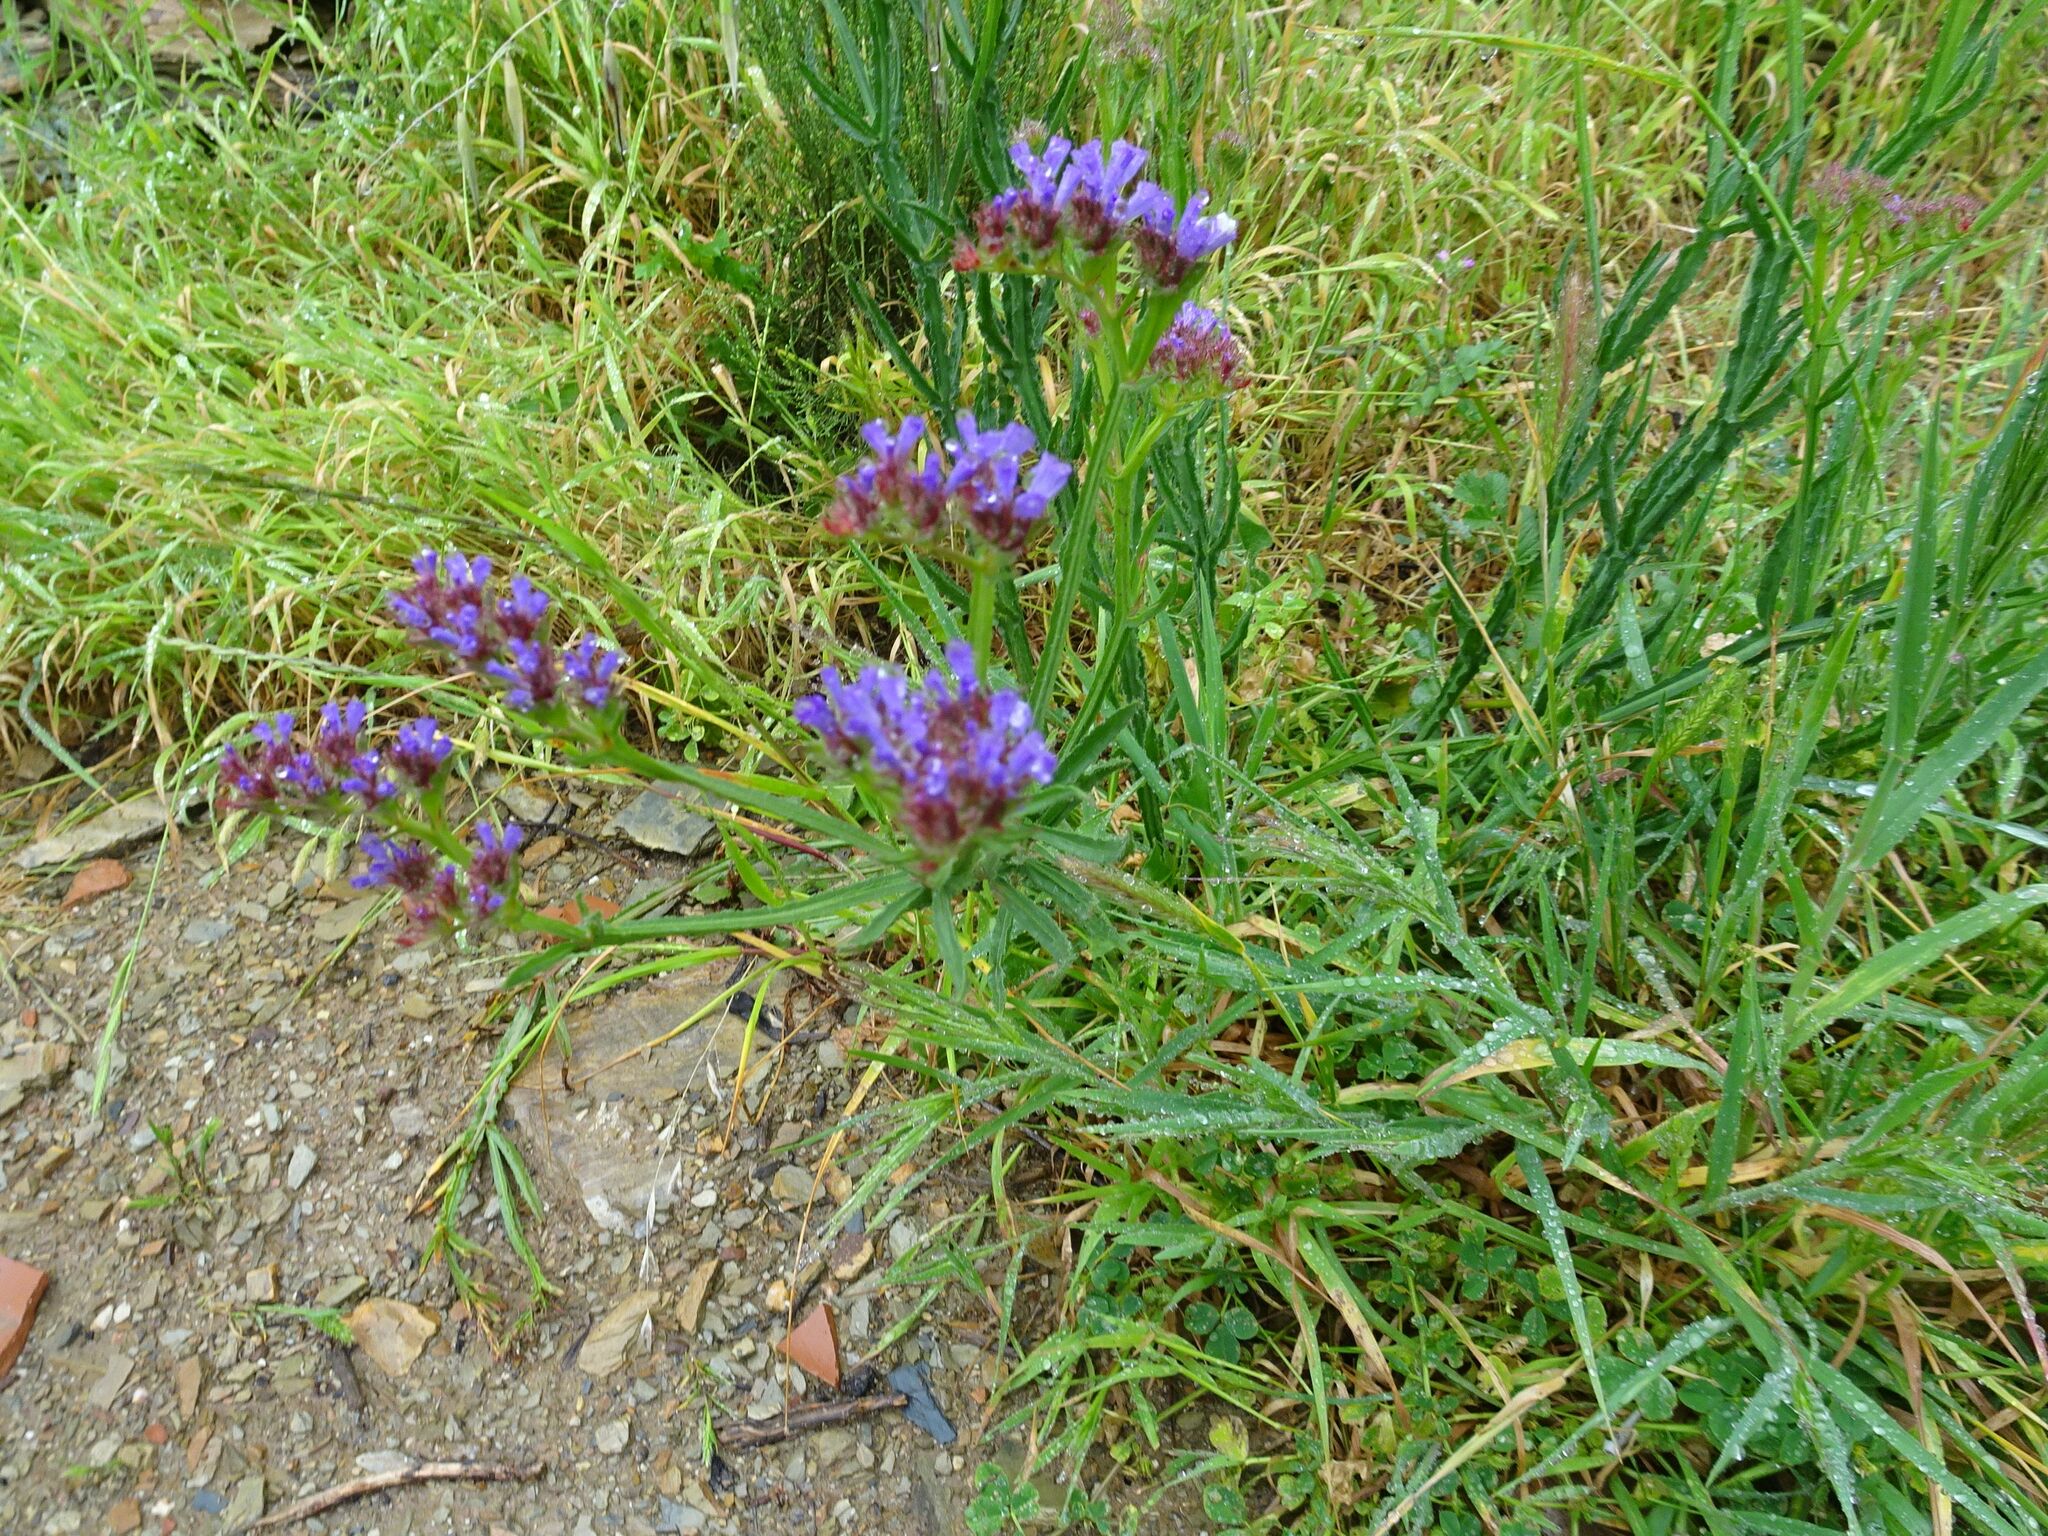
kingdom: Plantae
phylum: Tracheophyta
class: Magnoliopsida
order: Caryophyllales
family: Plumbaginaceae
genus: Limonium
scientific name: Limonium sinuatum
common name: Statice
